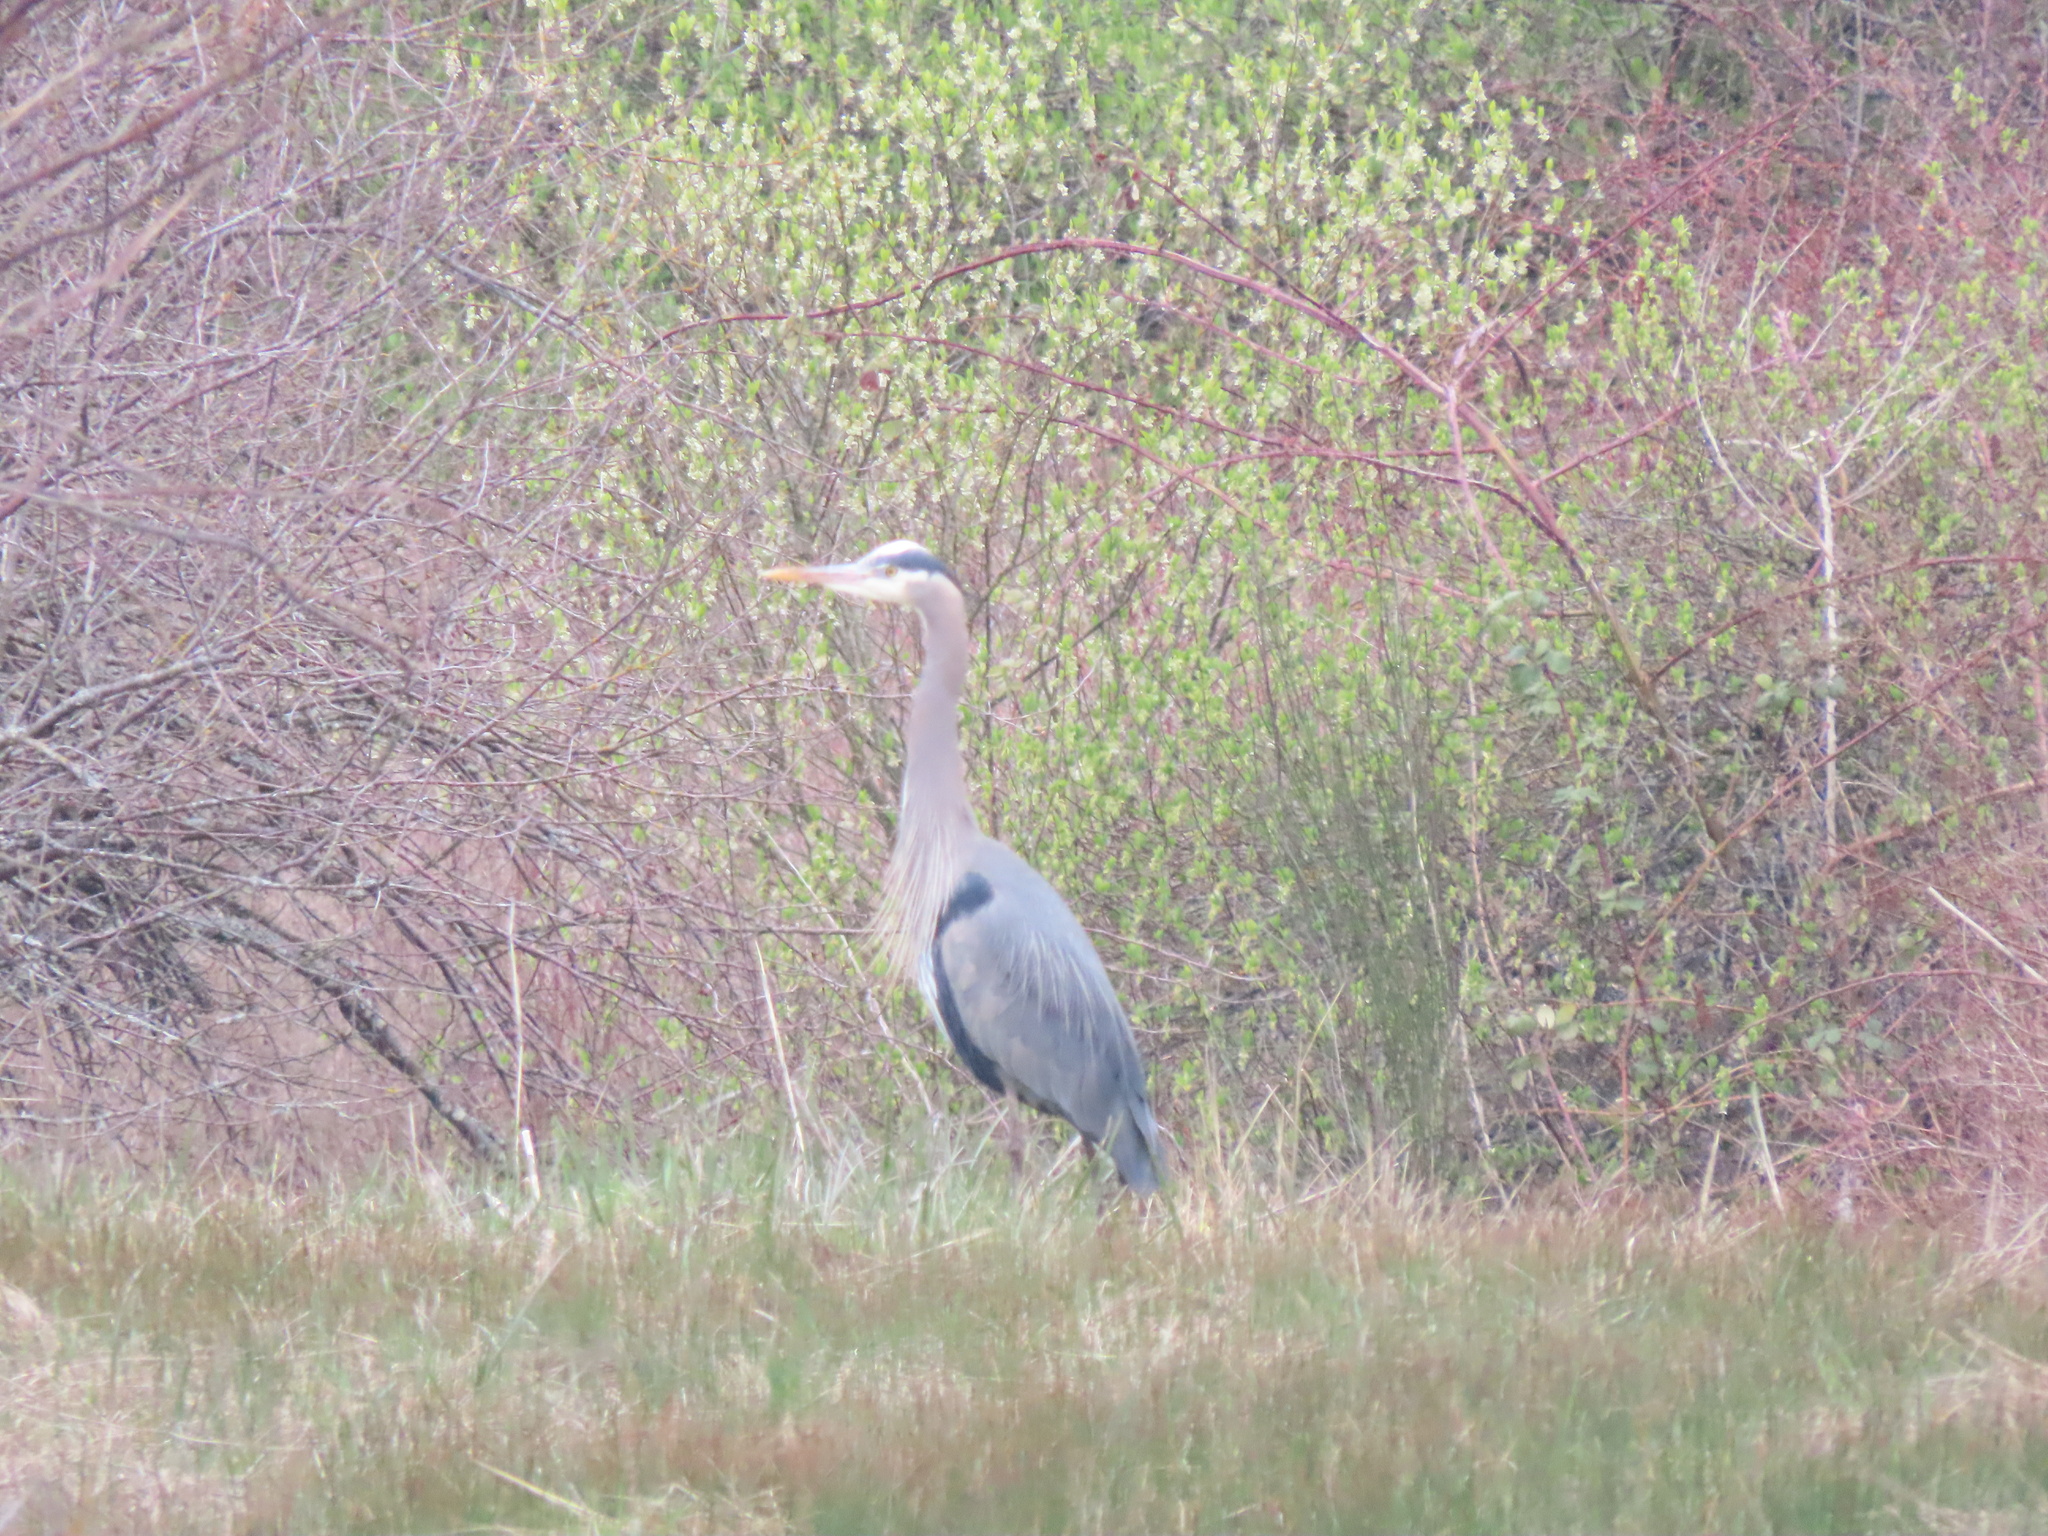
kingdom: Animalia
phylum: Chordata
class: Aves
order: Pelecaniformes
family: Ardeidae
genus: Ardea
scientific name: Ardea herodias
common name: Great blue heron
